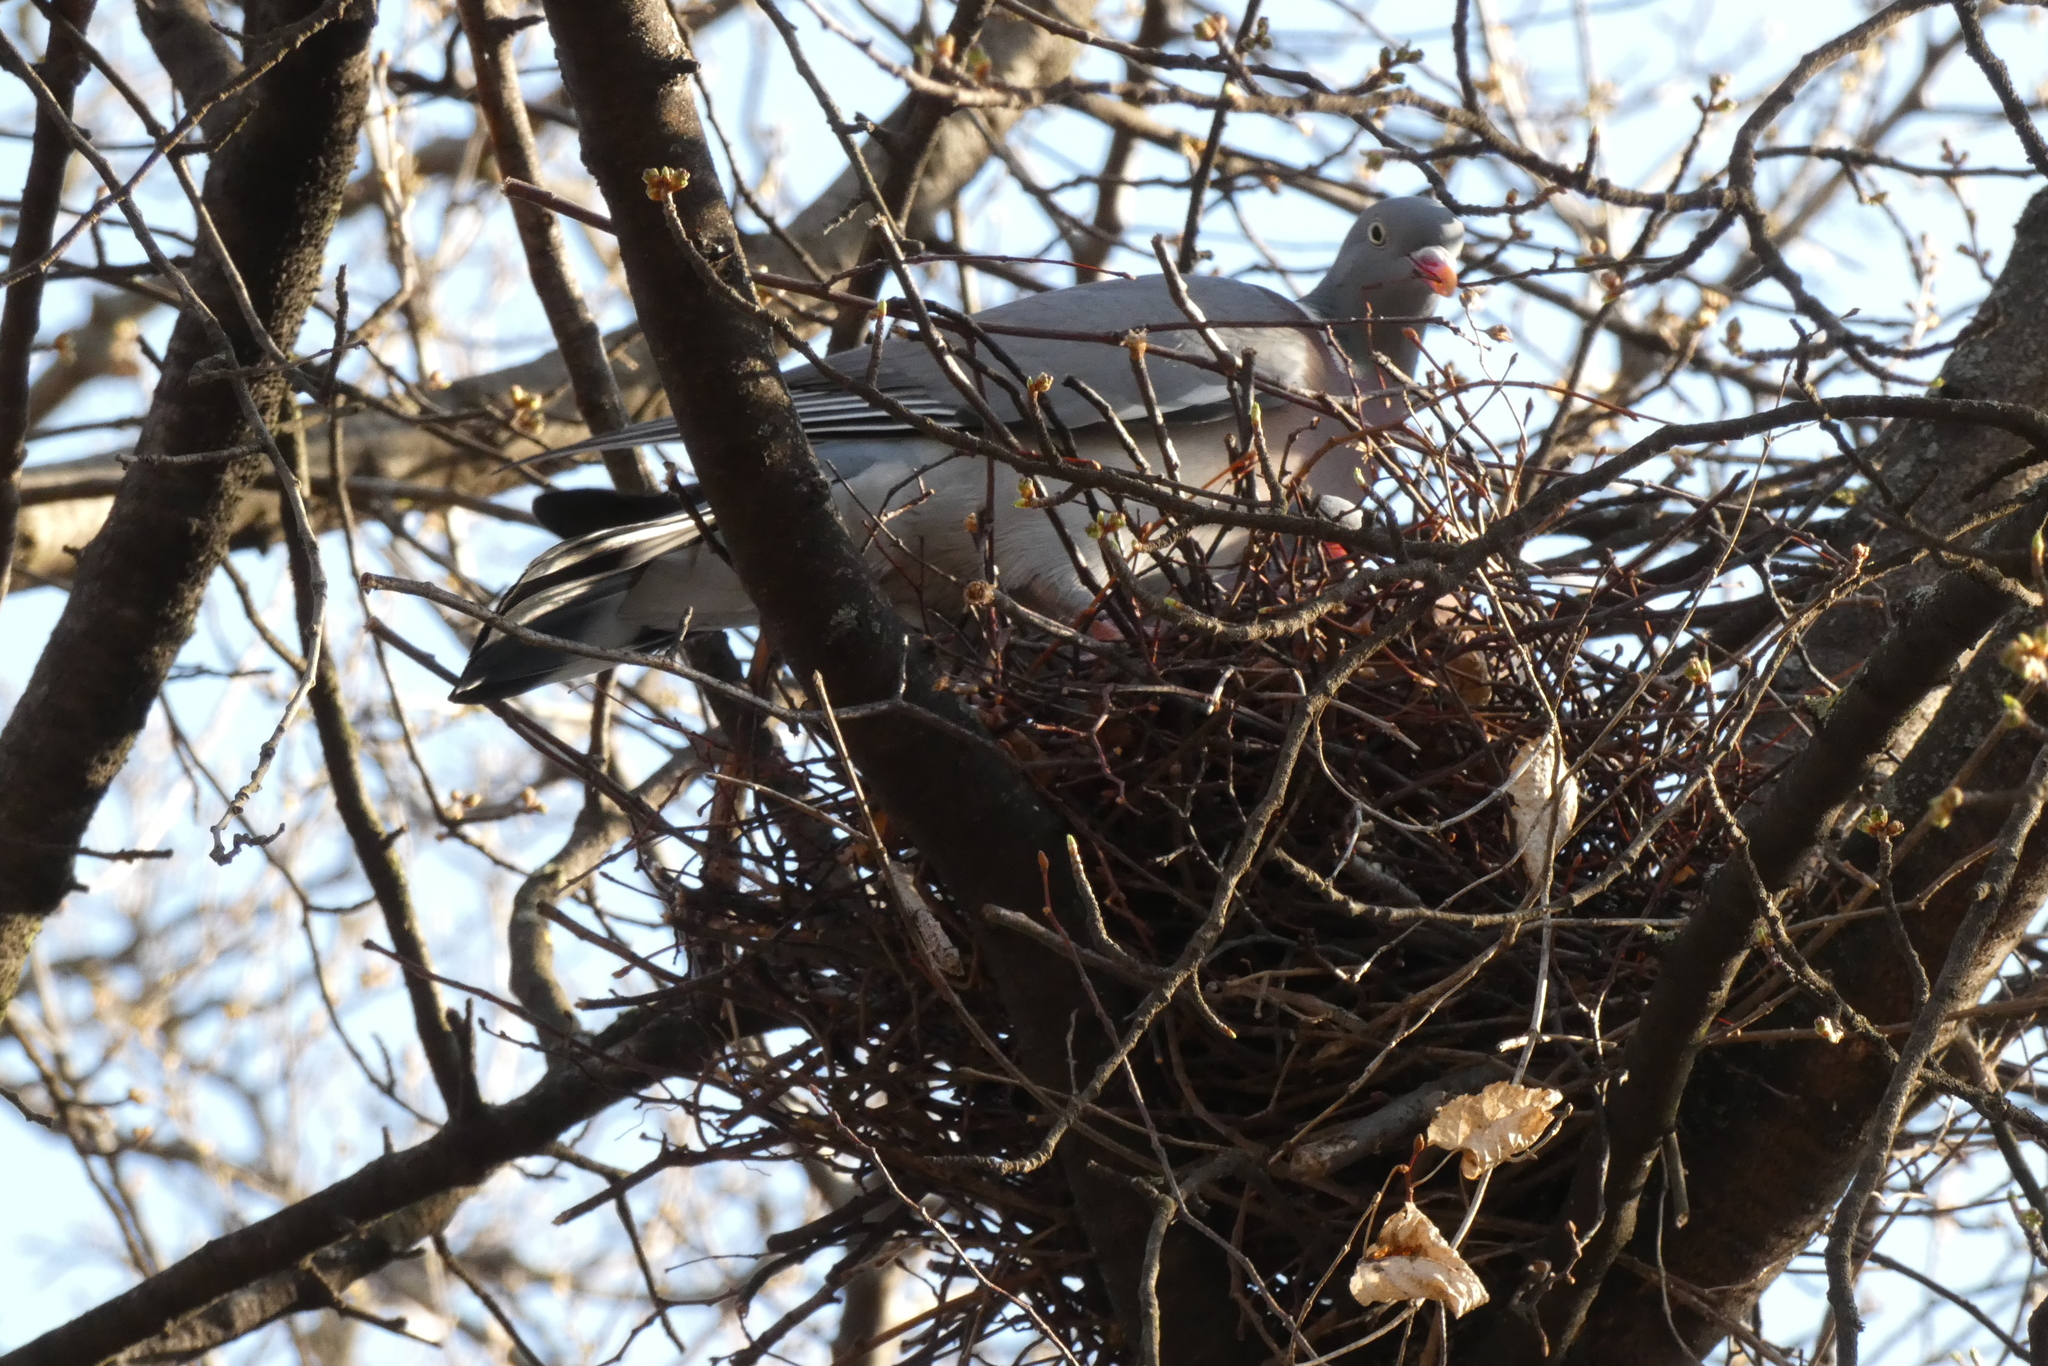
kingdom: Animalia
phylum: Chordata
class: Aves
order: Columbiformes
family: Columbidae
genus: Columba
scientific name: Columba palumbus
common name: Common wood pigeon
